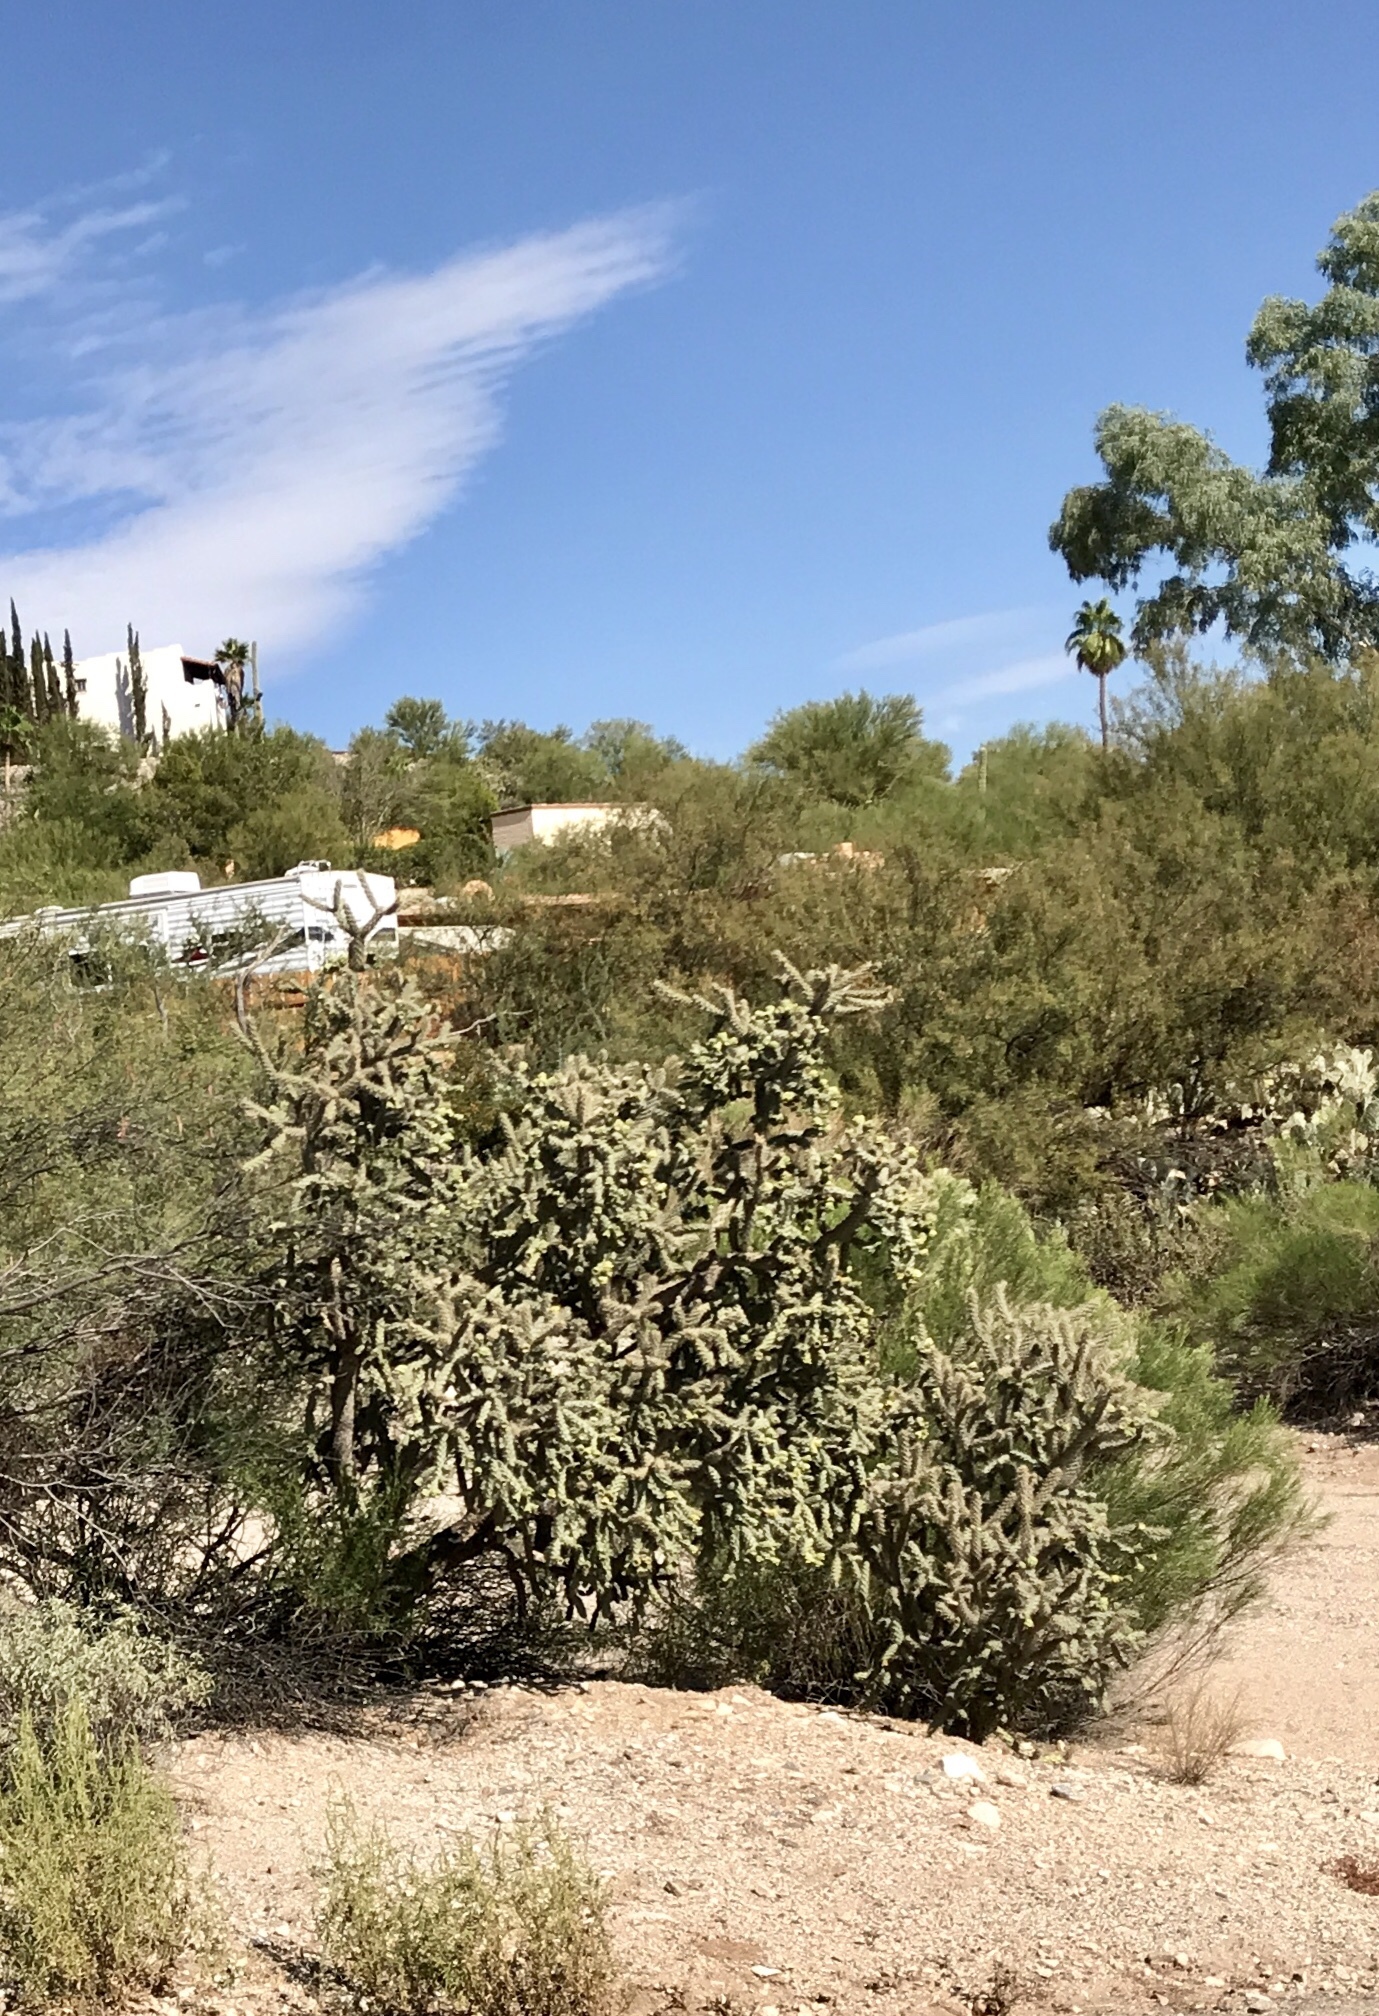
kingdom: Plantae
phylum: Tracheophyta
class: Magnoliopsida
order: Caryophyllales
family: Cactaceae
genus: Cylindropuntia
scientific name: Cylindropuntia thurberi
